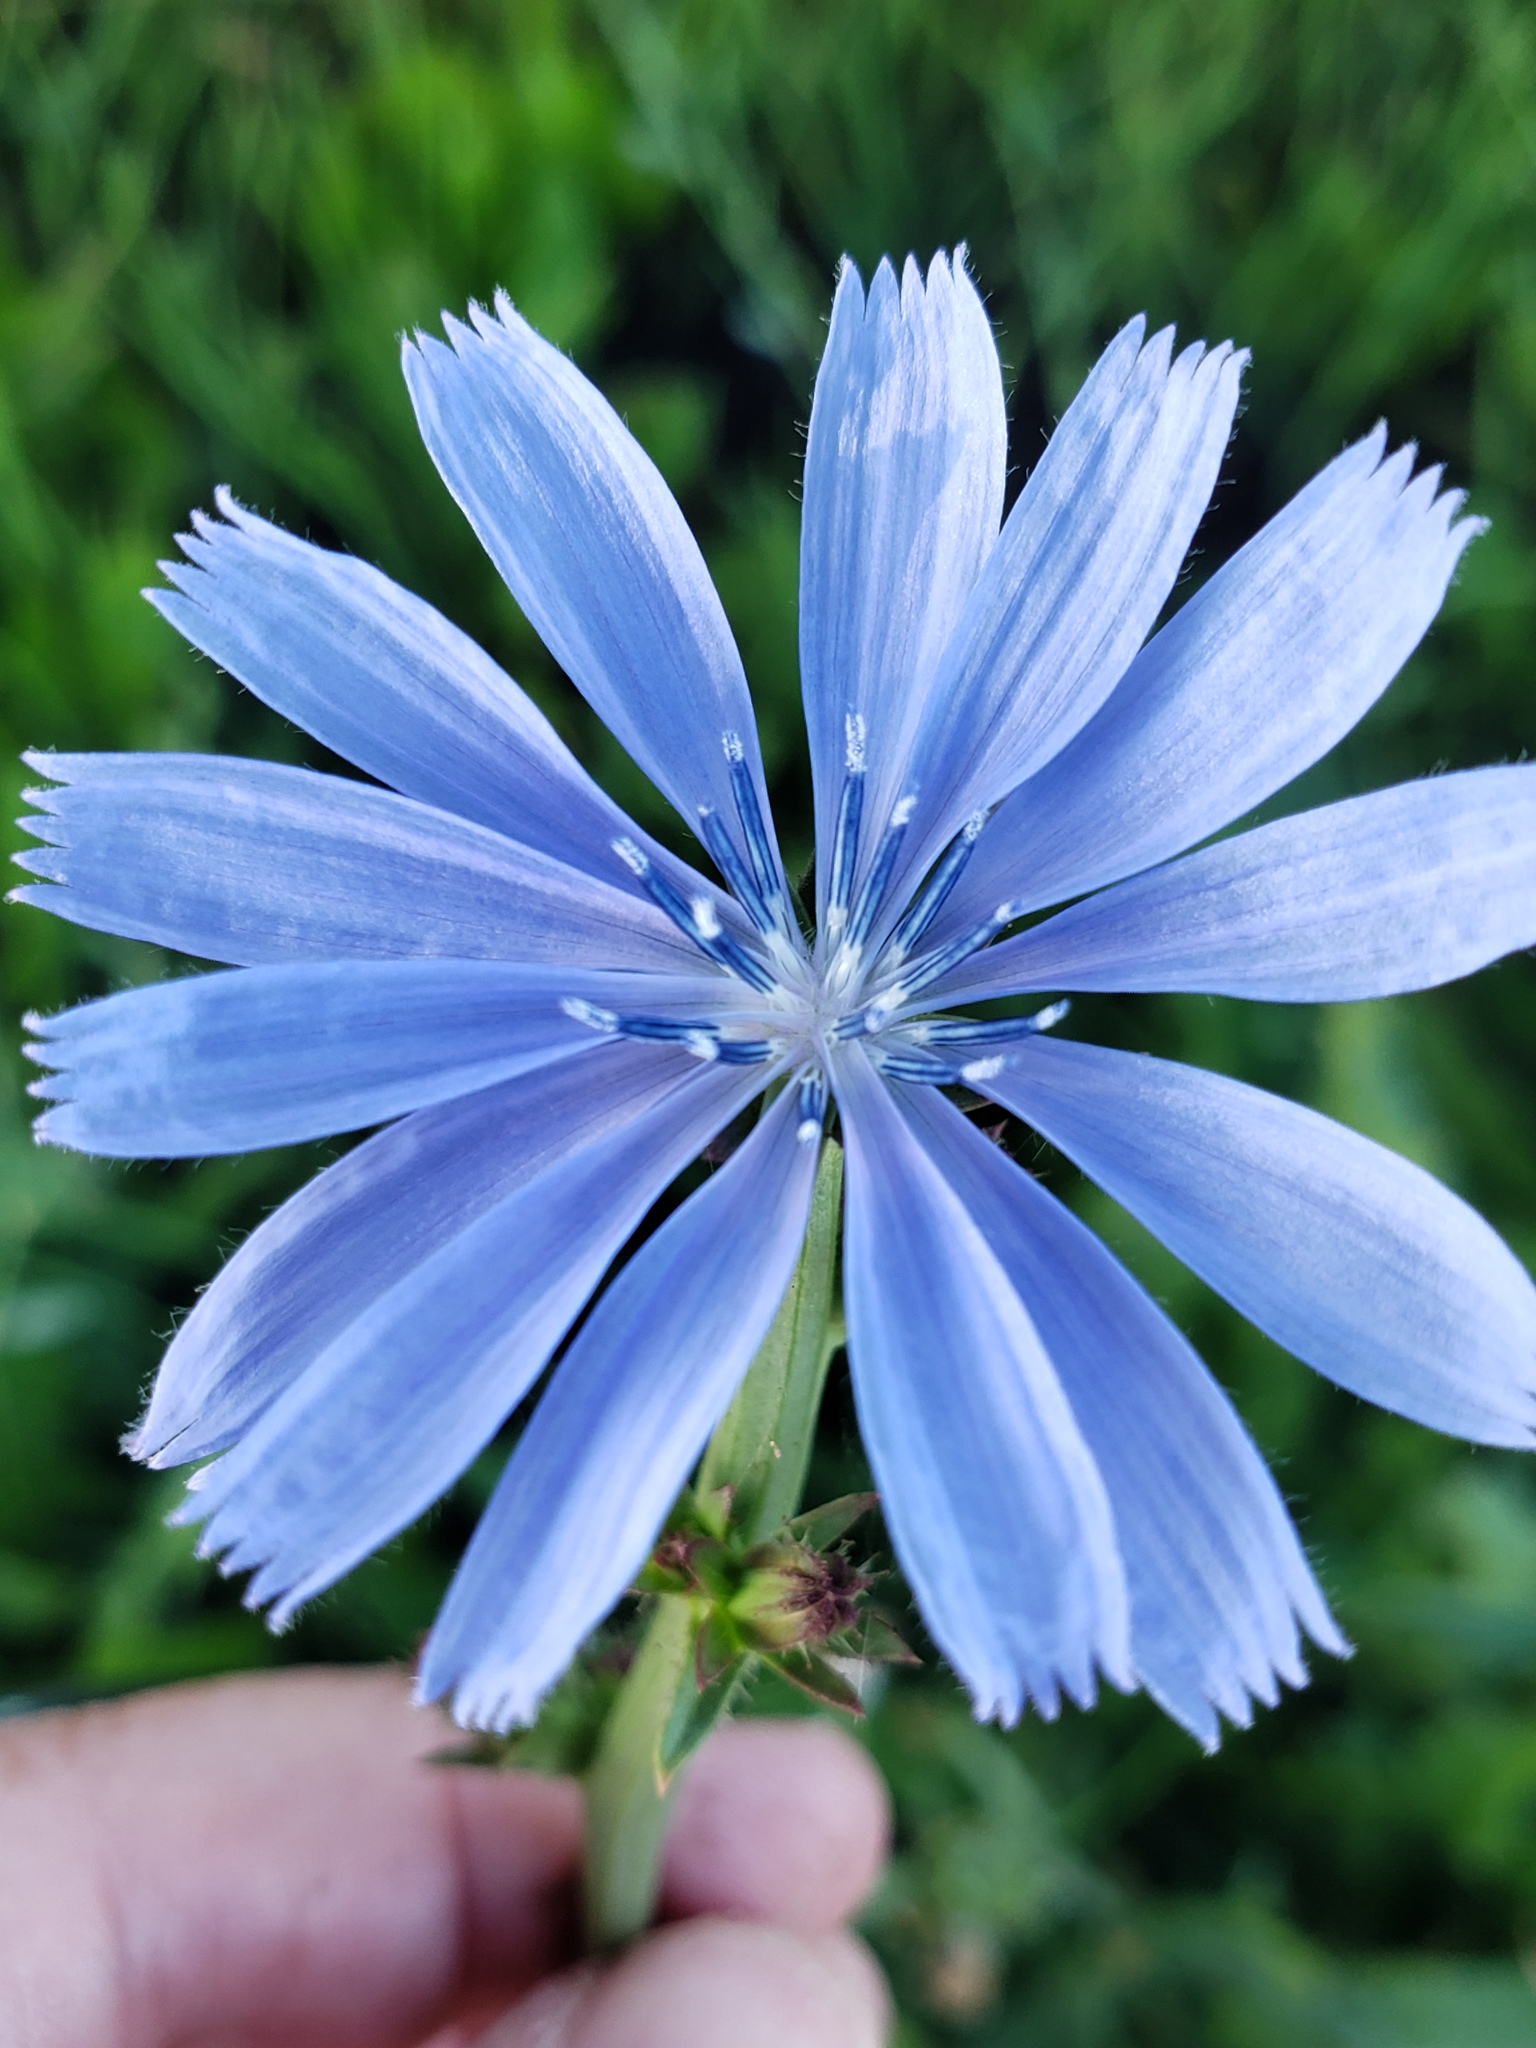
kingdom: Plantae
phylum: Tracheophyta
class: Magnoliopsida
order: Asterales
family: Asteraceae
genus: Cichorium
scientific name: Cichorium intybus
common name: Chicory
